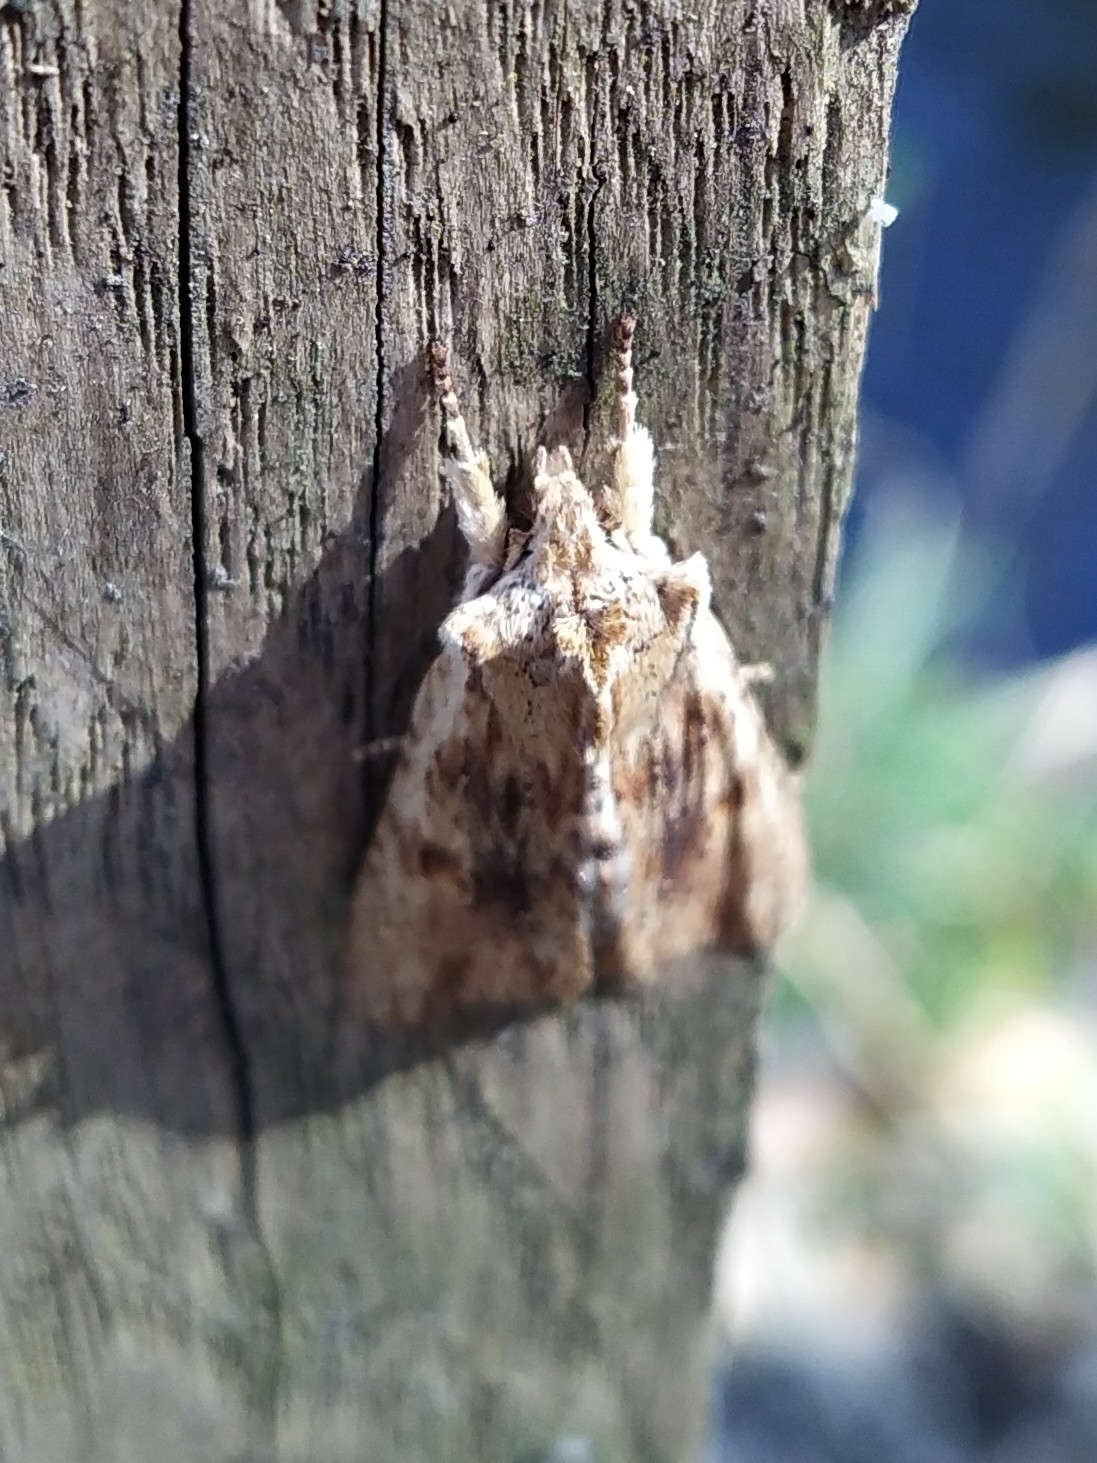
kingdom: Animalia
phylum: Arthropoda
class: Insecta
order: Lepidoptera
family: Noctuidae
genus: Lithophane
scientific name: Lithophane socia
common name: Pale pinion
